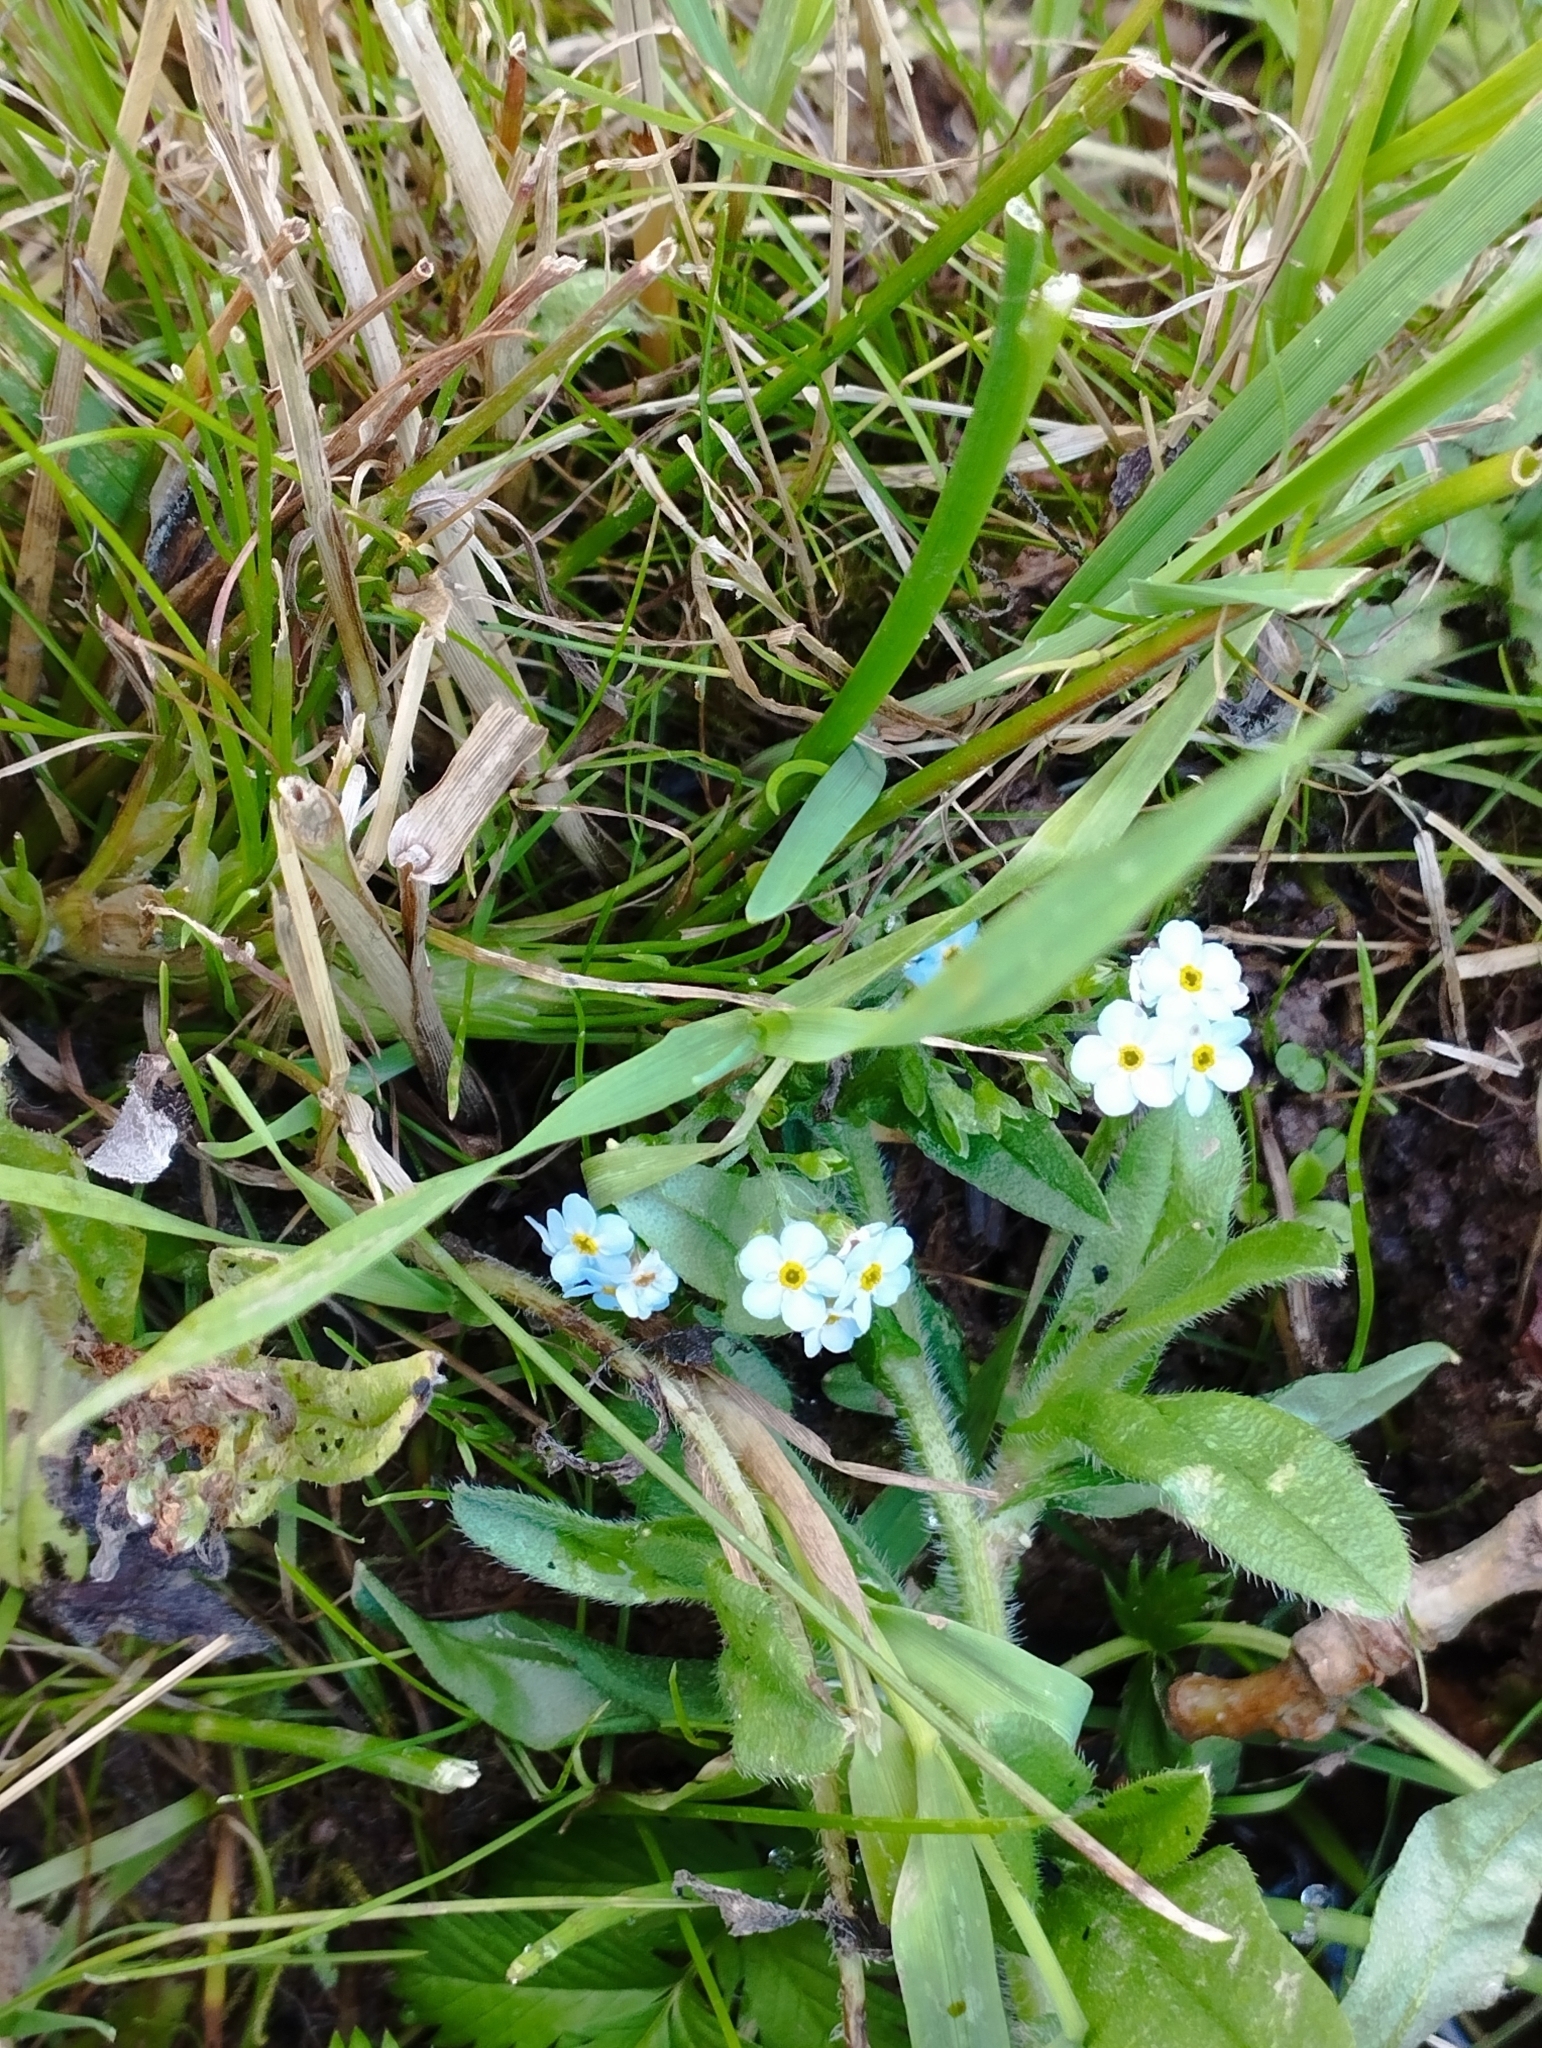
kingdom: Plantae
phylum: Tracheophyta
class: Magnoliopsida
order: Boraginales
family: Boraginaceae
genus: Myosotis
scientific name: Myosotis scorpioides
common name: Water forget-me-not
